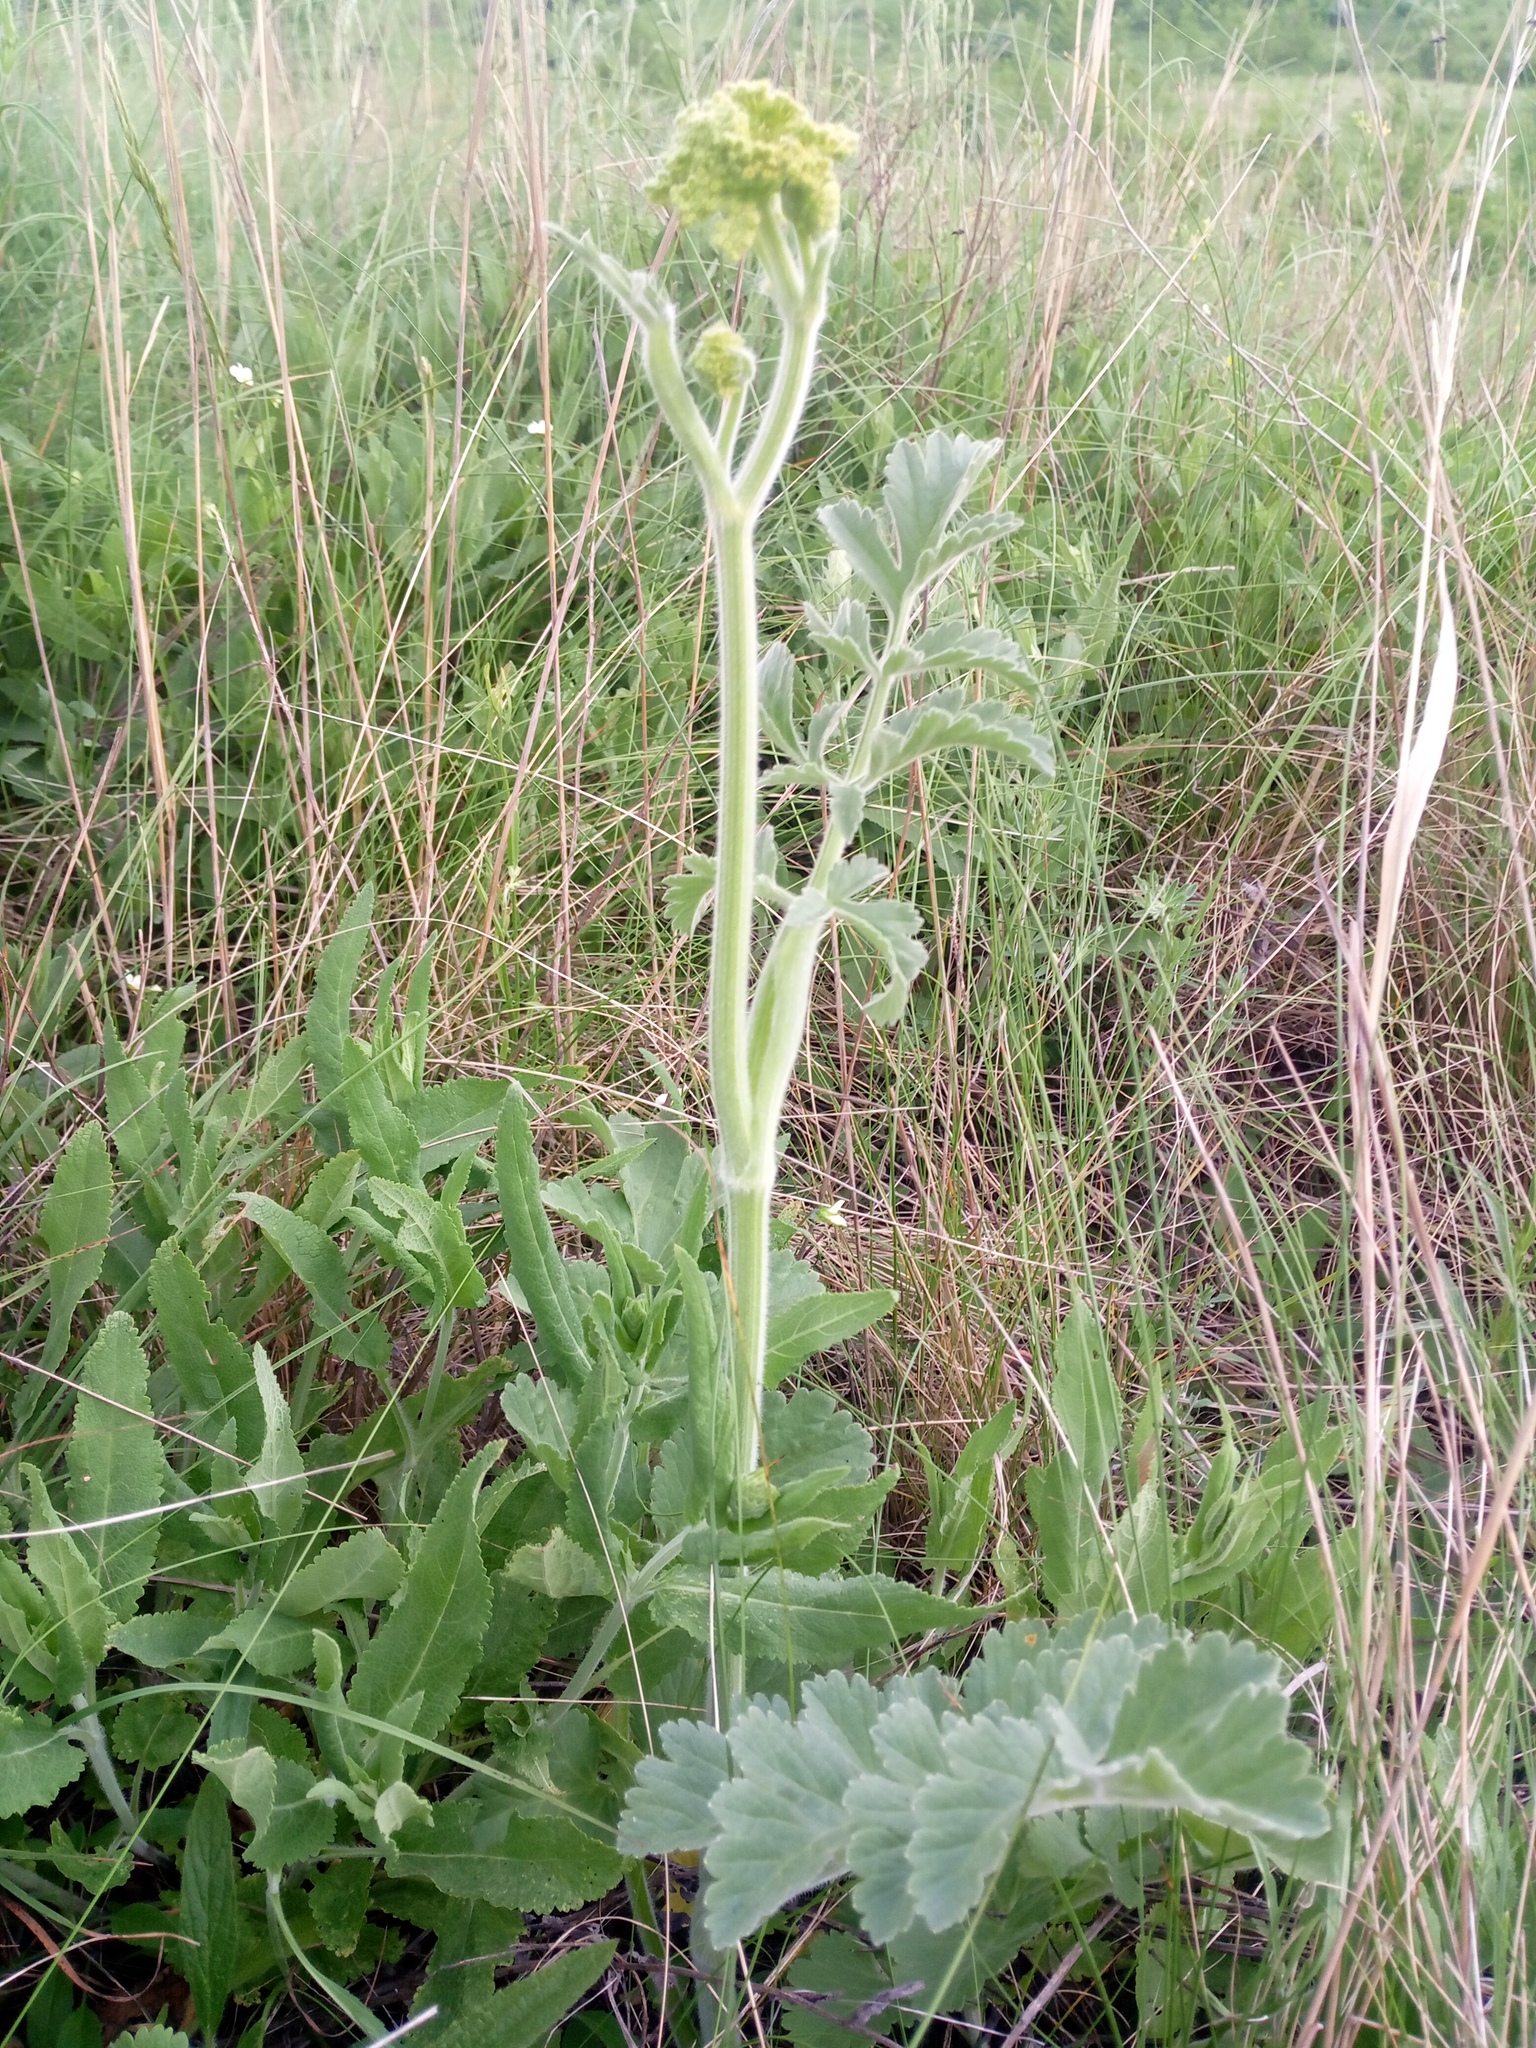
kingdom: Plantae
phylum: Tracheophyta
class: Magnoliopsida
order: Apiales
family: Apiaceae
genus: Pastinaca
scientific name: Pastinaca clausii
